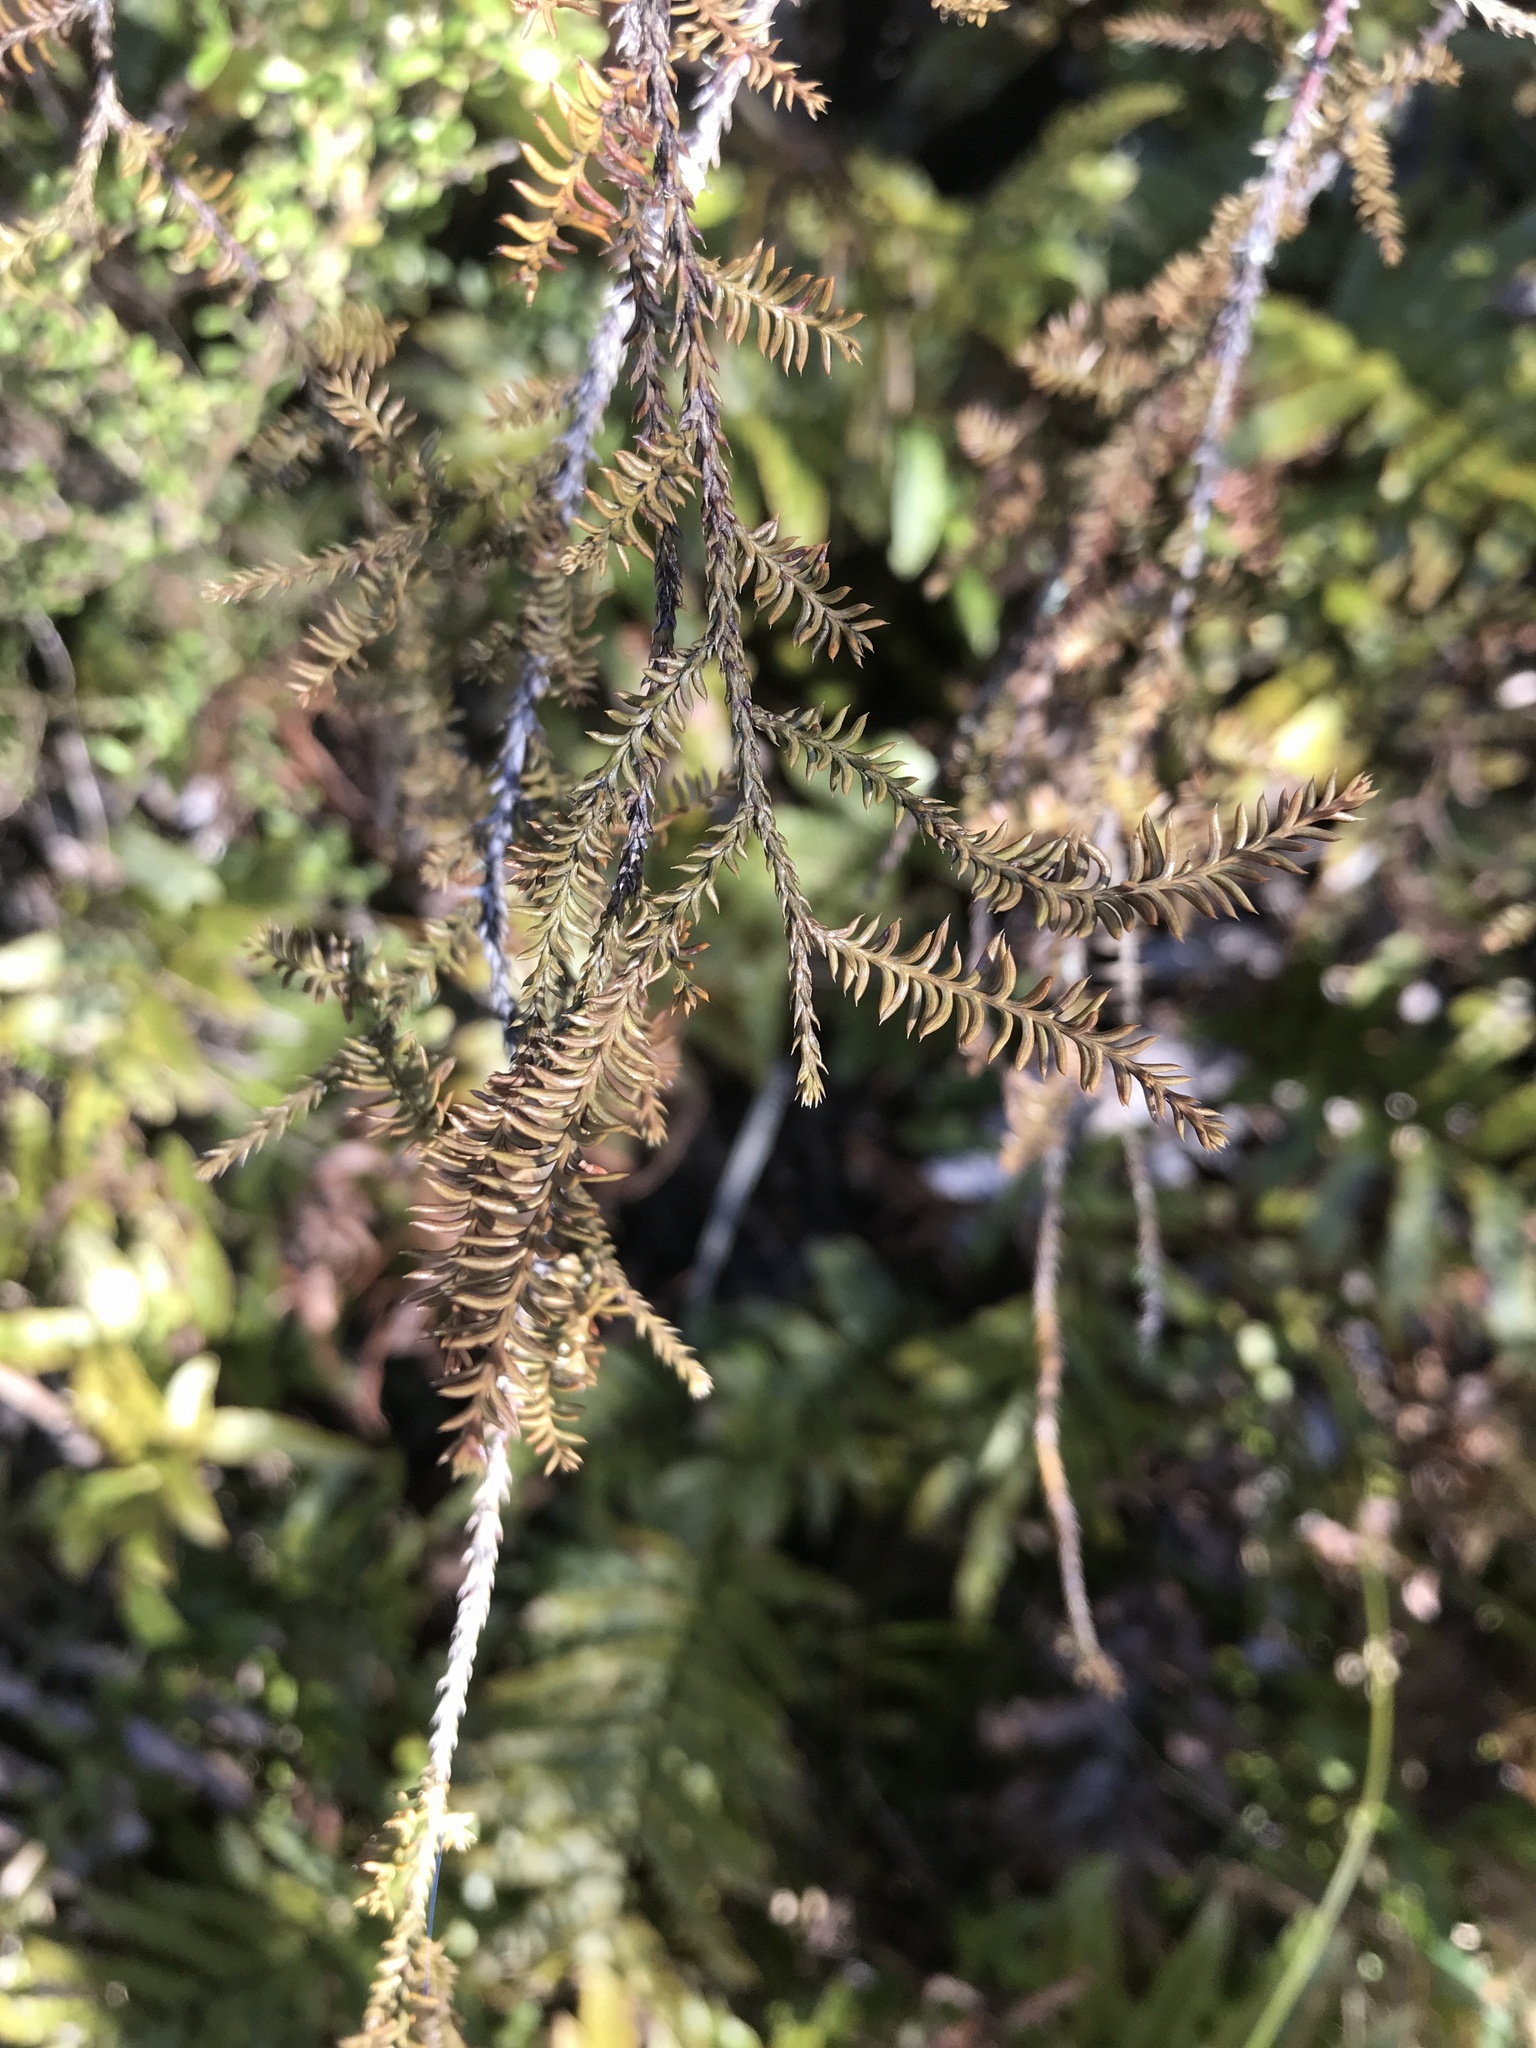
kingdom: Plantae
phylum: Tracheophyta
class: Pinopsida
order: Pinales
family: Podocarpaceae
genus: Dacrycarpus
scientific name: Dacrycarpus dacrydioides
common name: White pine
